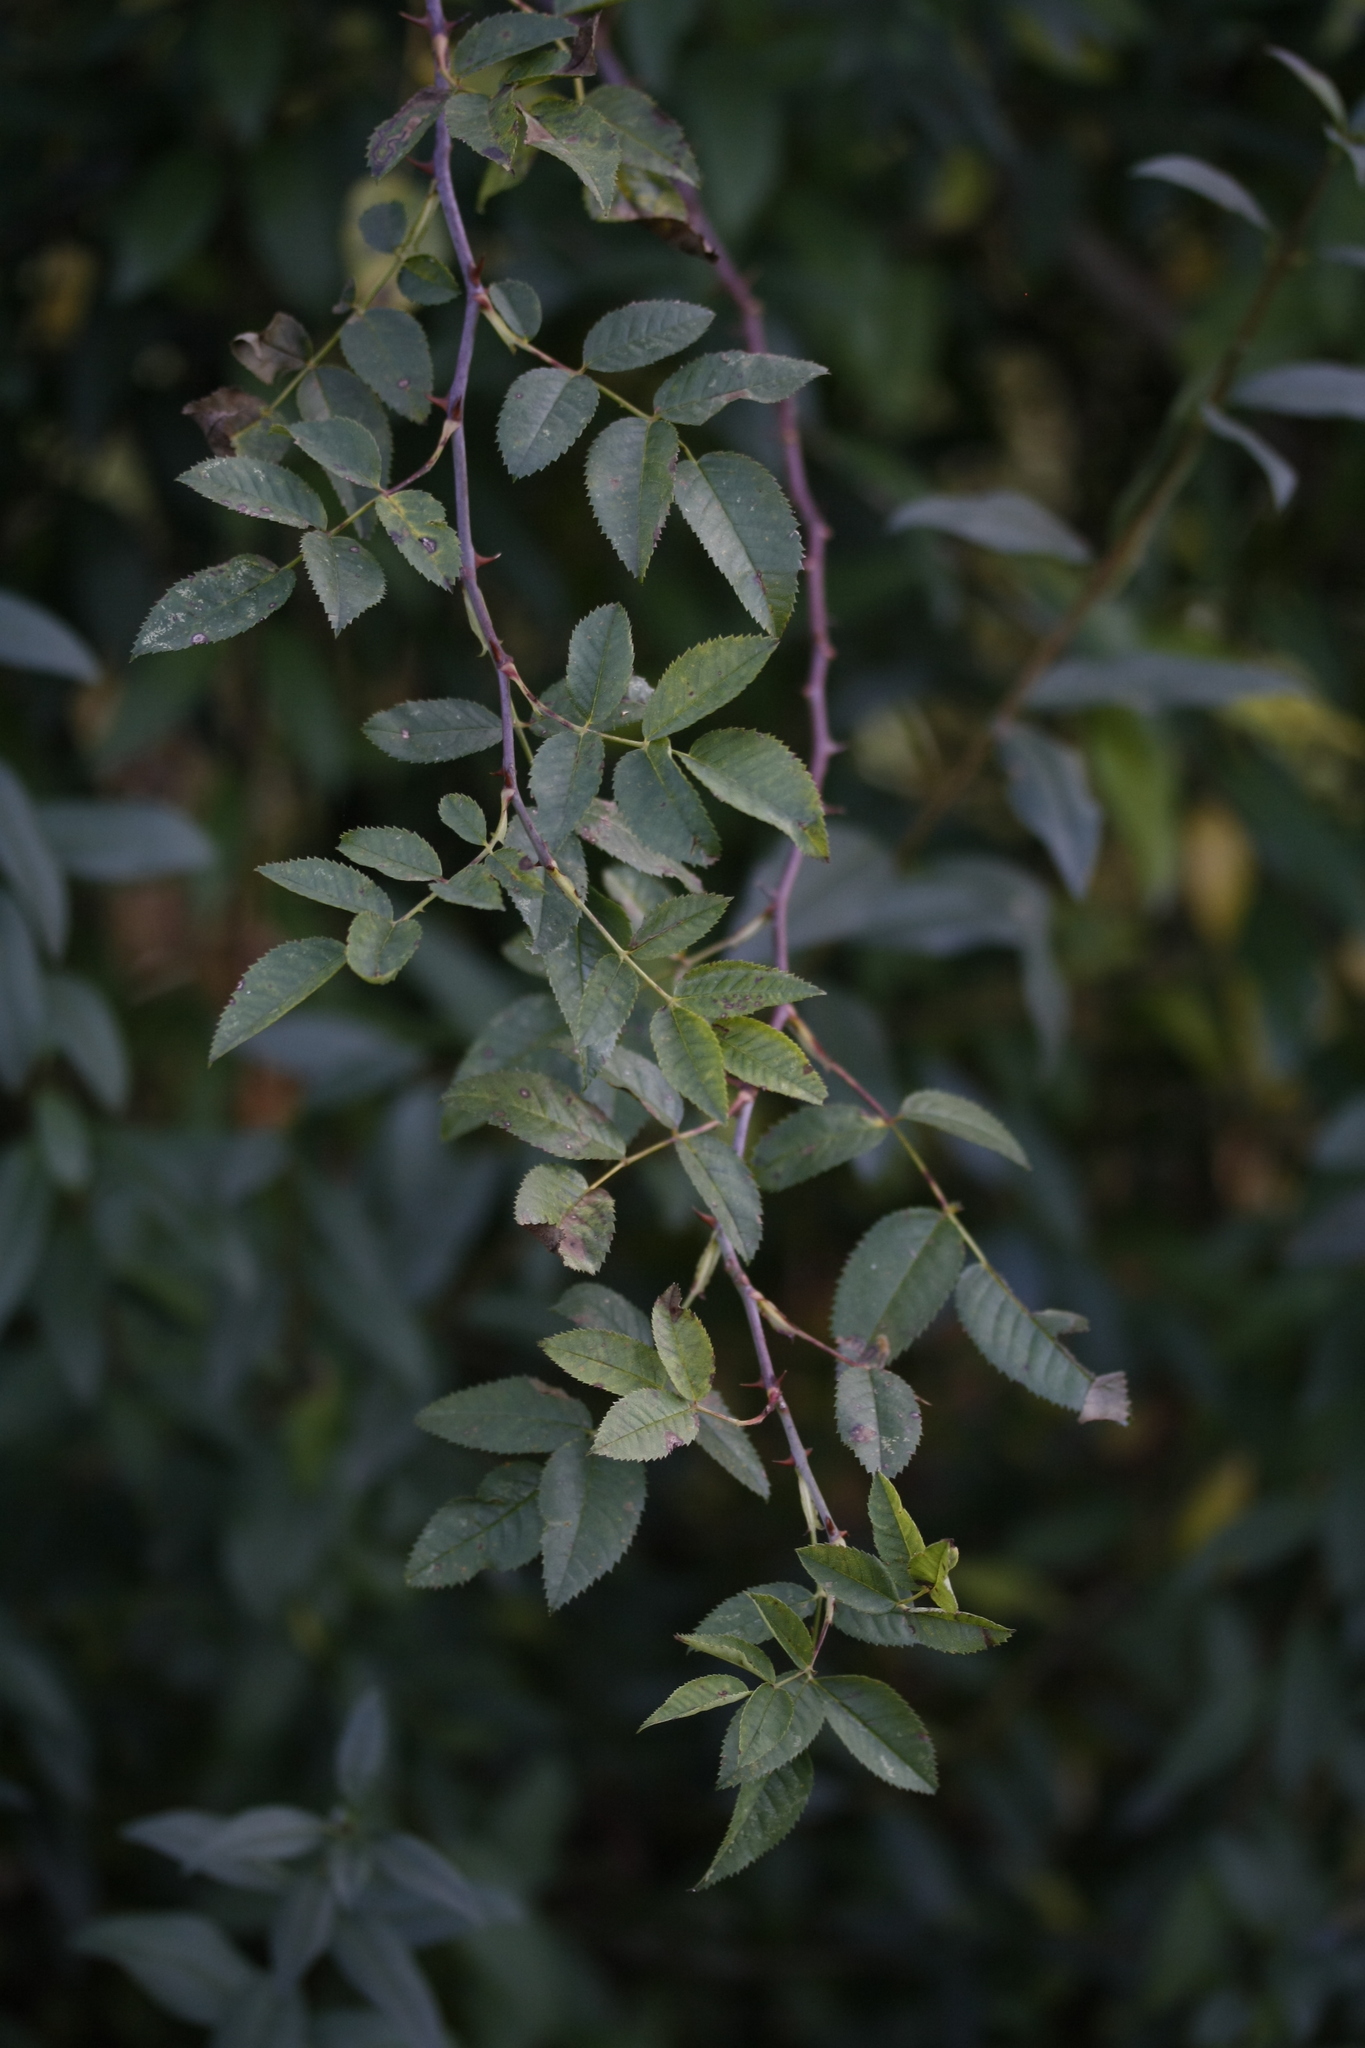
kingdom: Animalia
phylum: Arthropoda
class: Insecta
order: Hymenoptera
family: Cynipidae
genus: Diplolepis
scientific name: Diplolepis rosae
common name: Bedeguar gall
